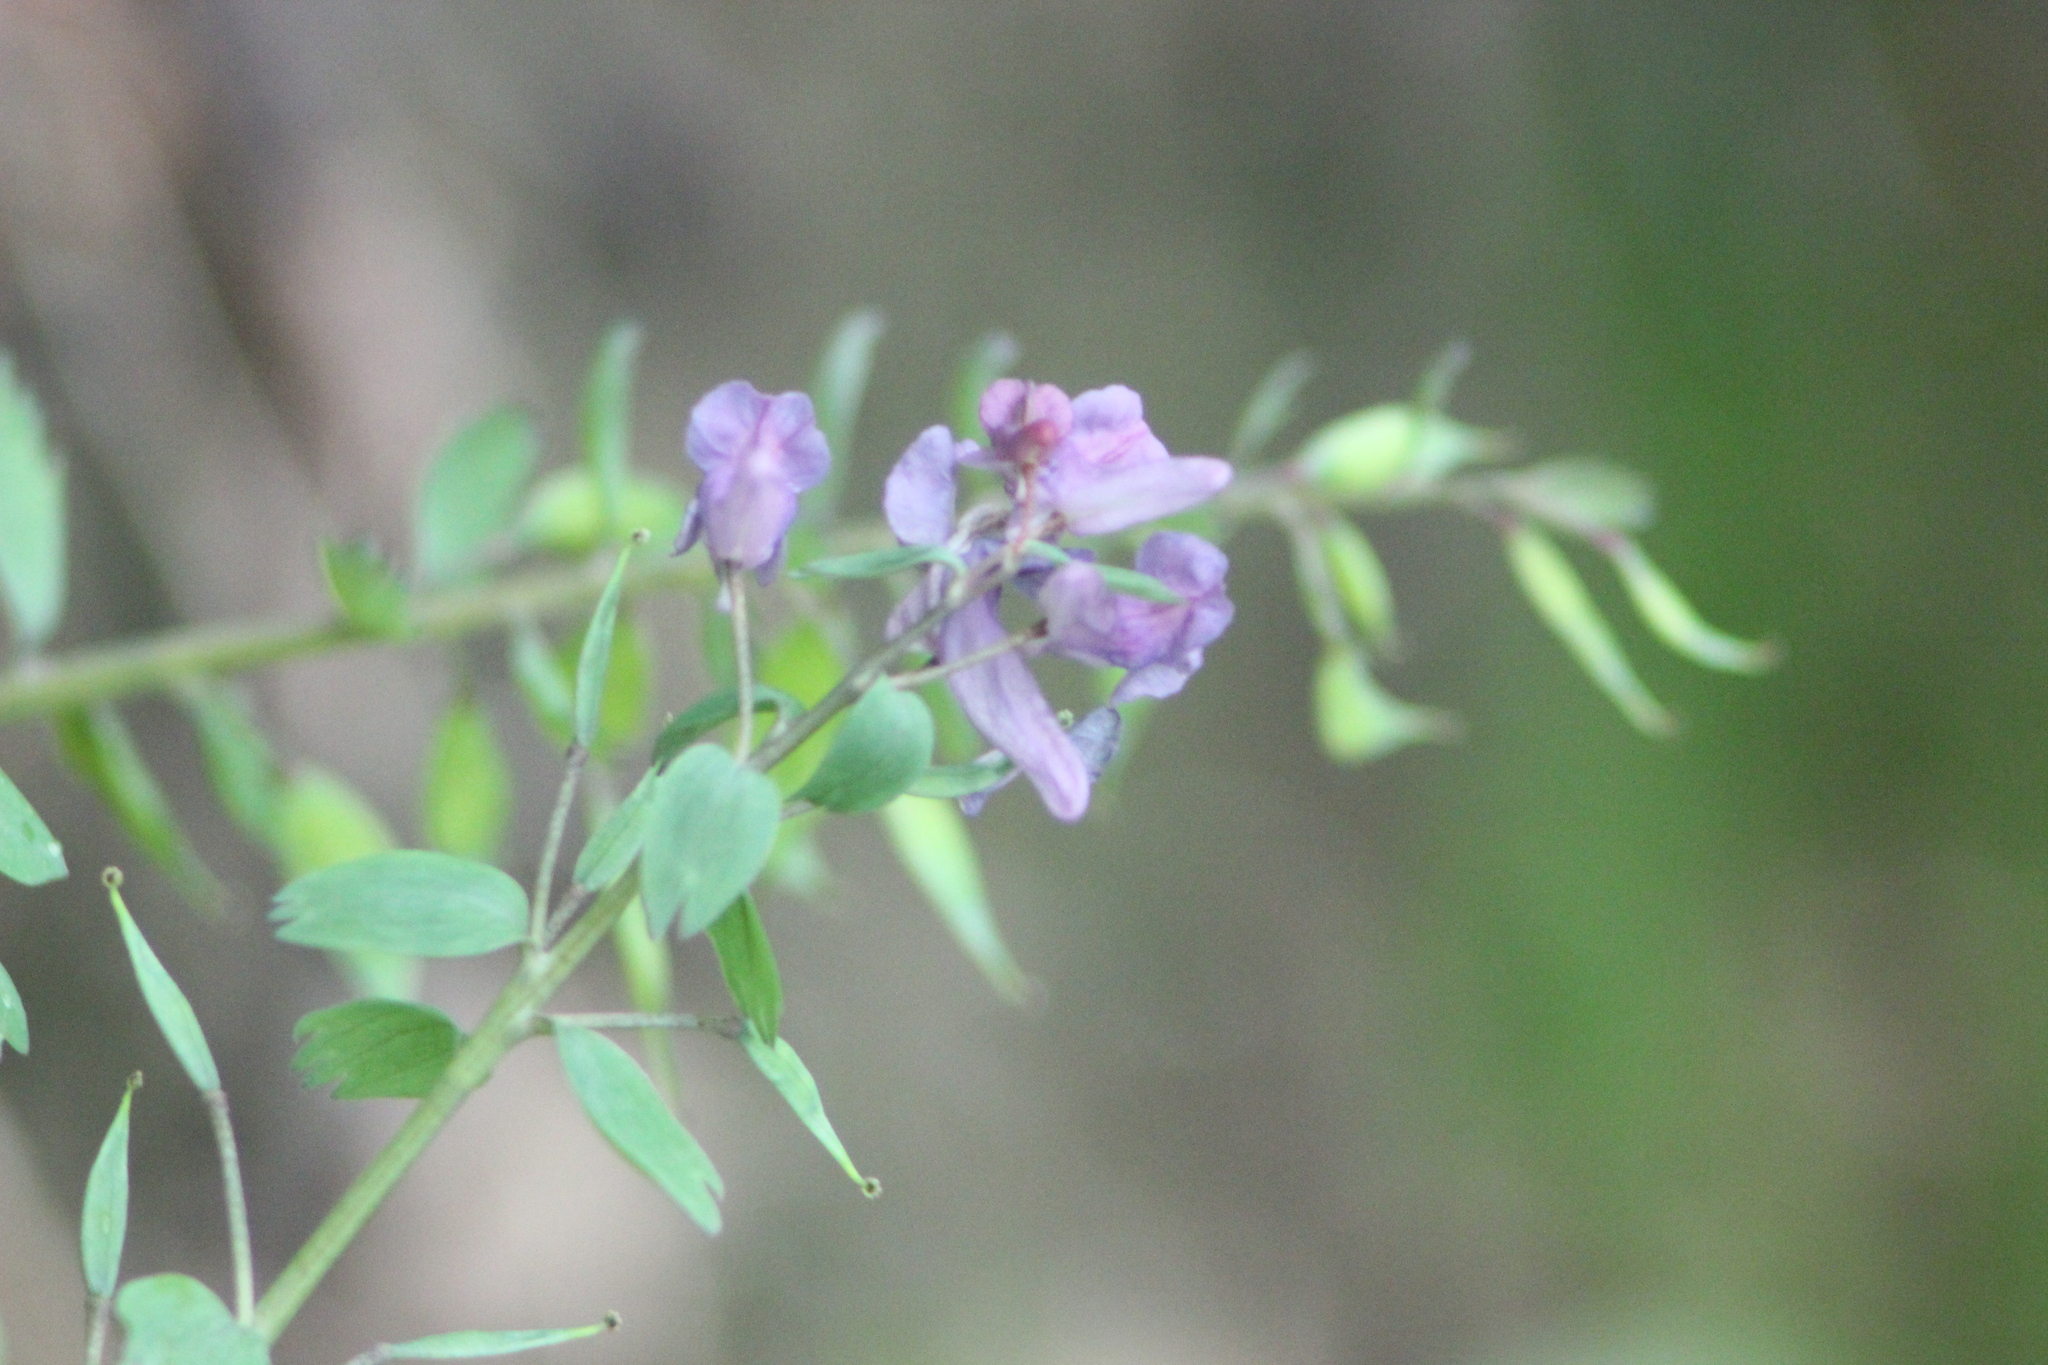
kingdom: Plantae
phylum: Tracheophyta
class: Magnoliopsida
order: Ranunculales
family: Papaveraceae
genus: Corydalis
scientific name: Corydalis solida
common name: Bird-in-a-bush
